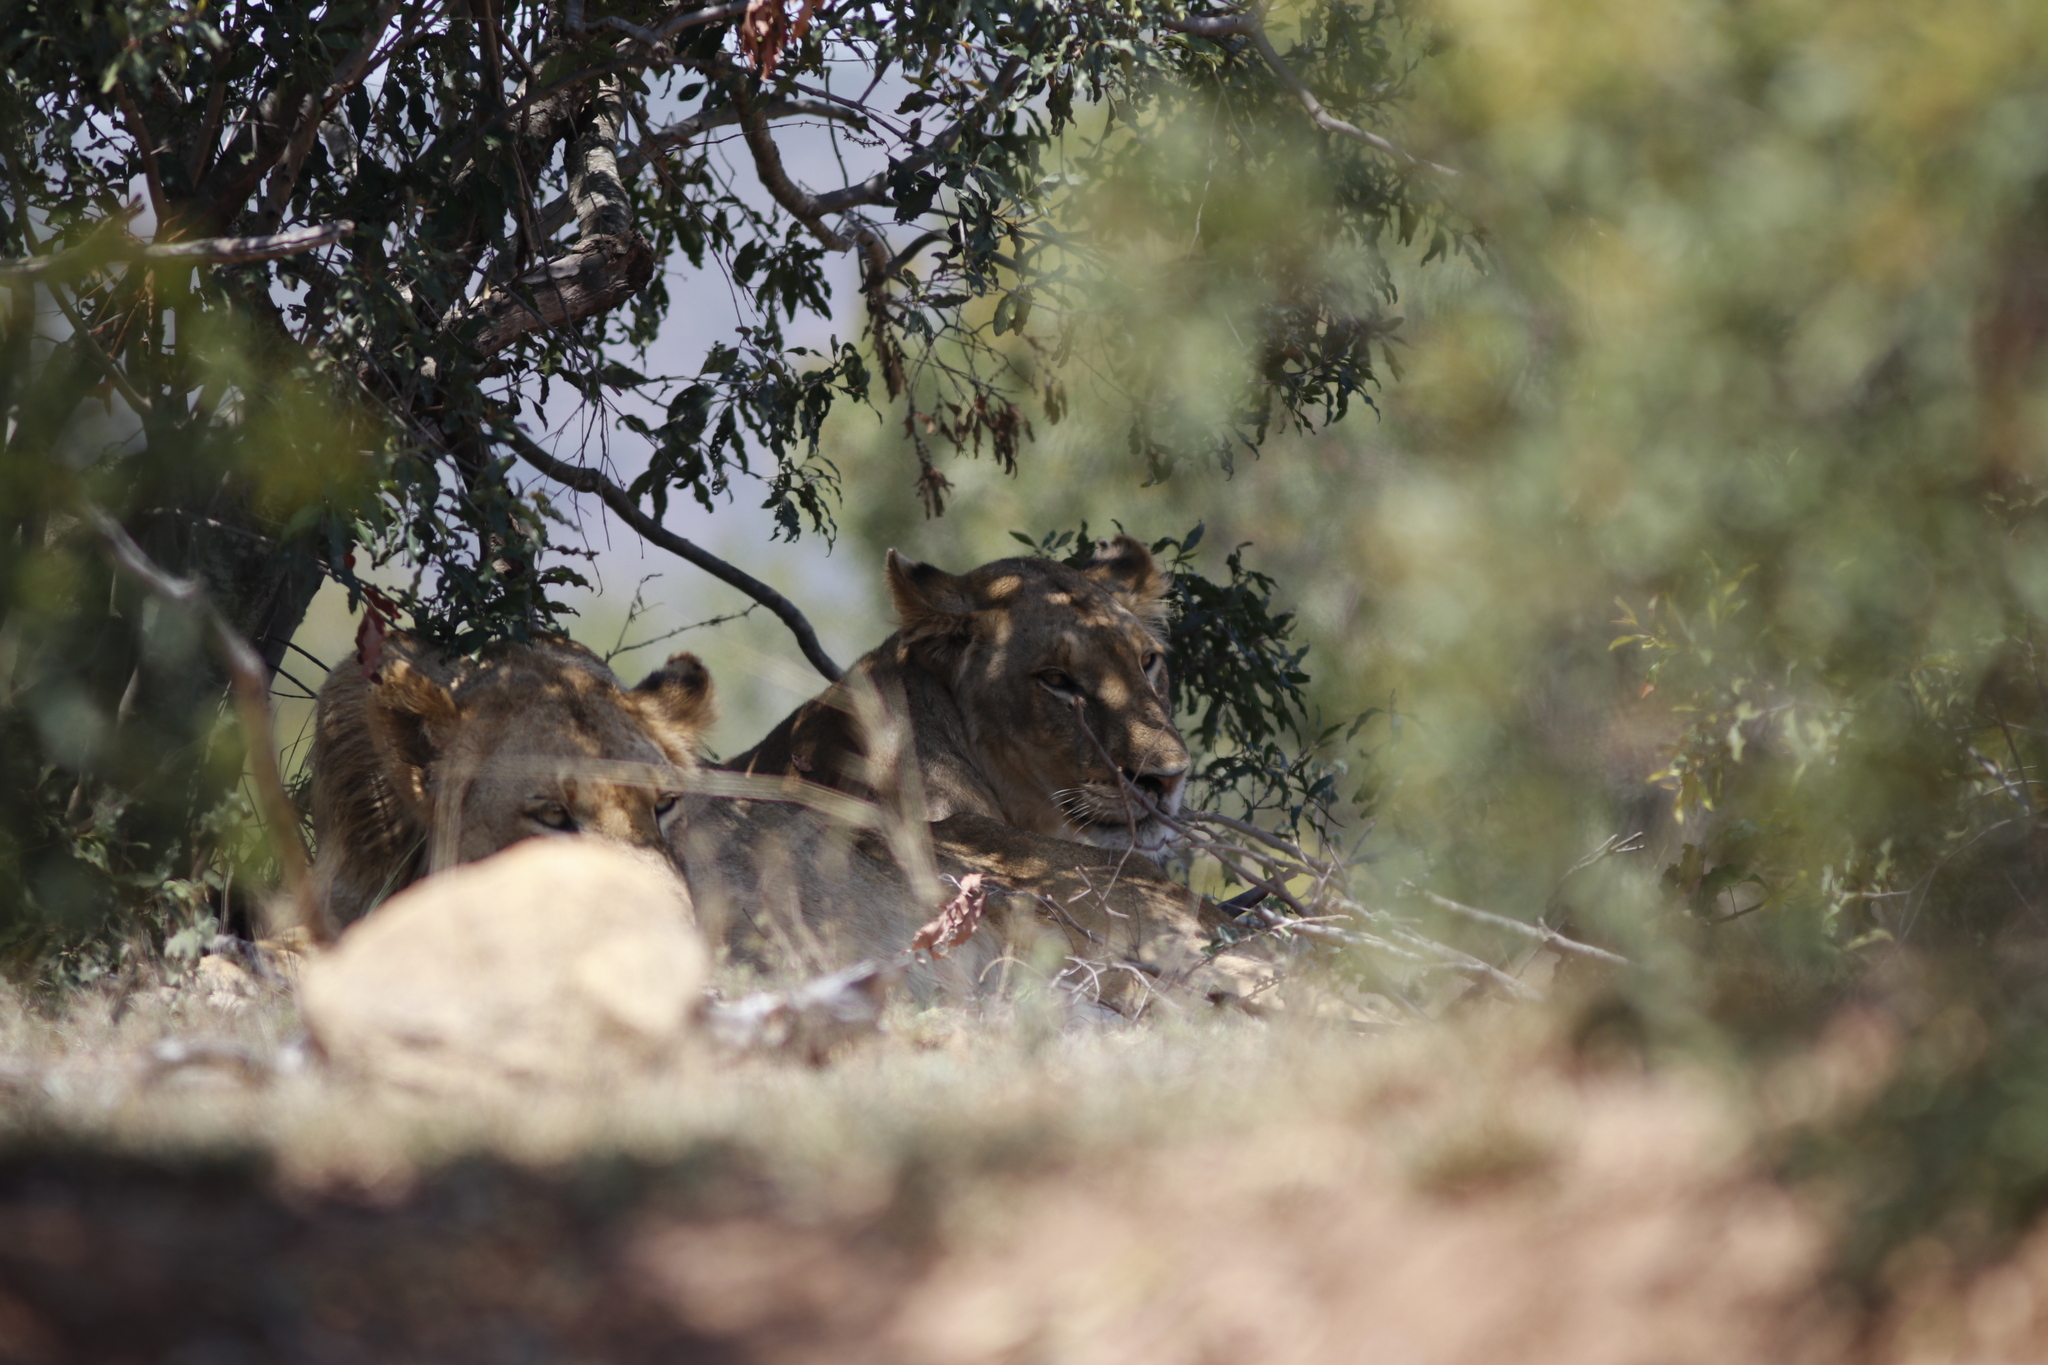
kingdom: Animalia
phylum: Chordata
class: Mammalia
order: Carnivora
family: Felidae
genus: Panthera
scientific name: Panthera leo
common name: Lion
